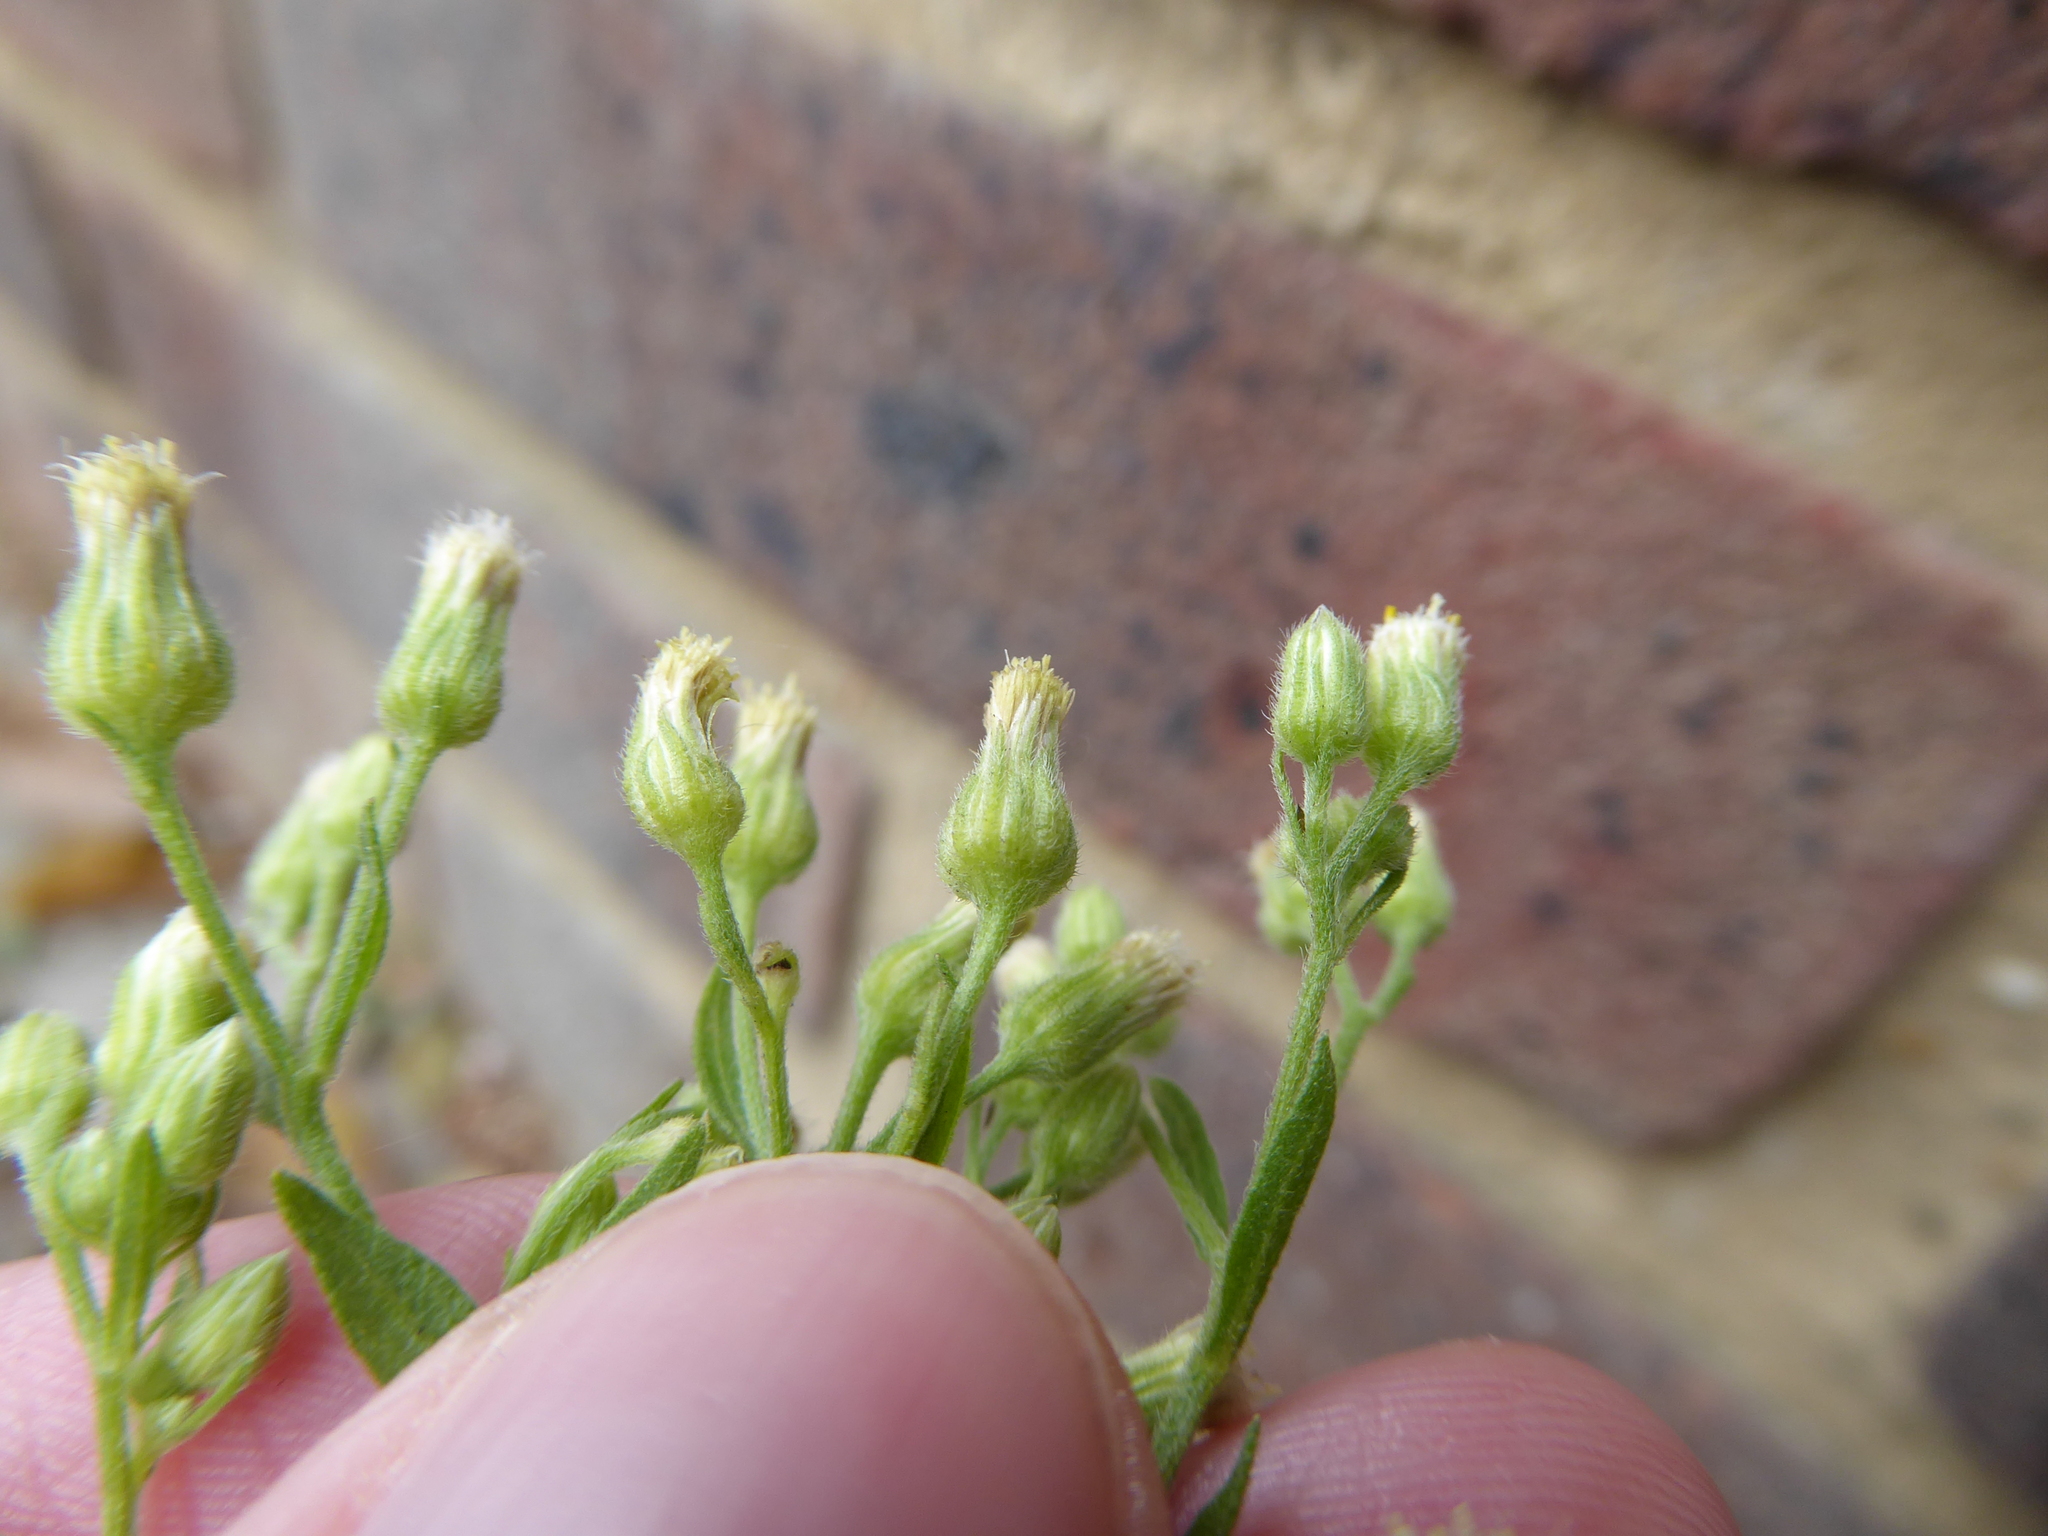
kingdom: Plantae
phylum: Tracheophyta
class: Magnoliopsida
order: Asterales
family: Asteraceae
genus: Erigeron
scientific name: Erigeron sumatrensis
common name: Daisy
